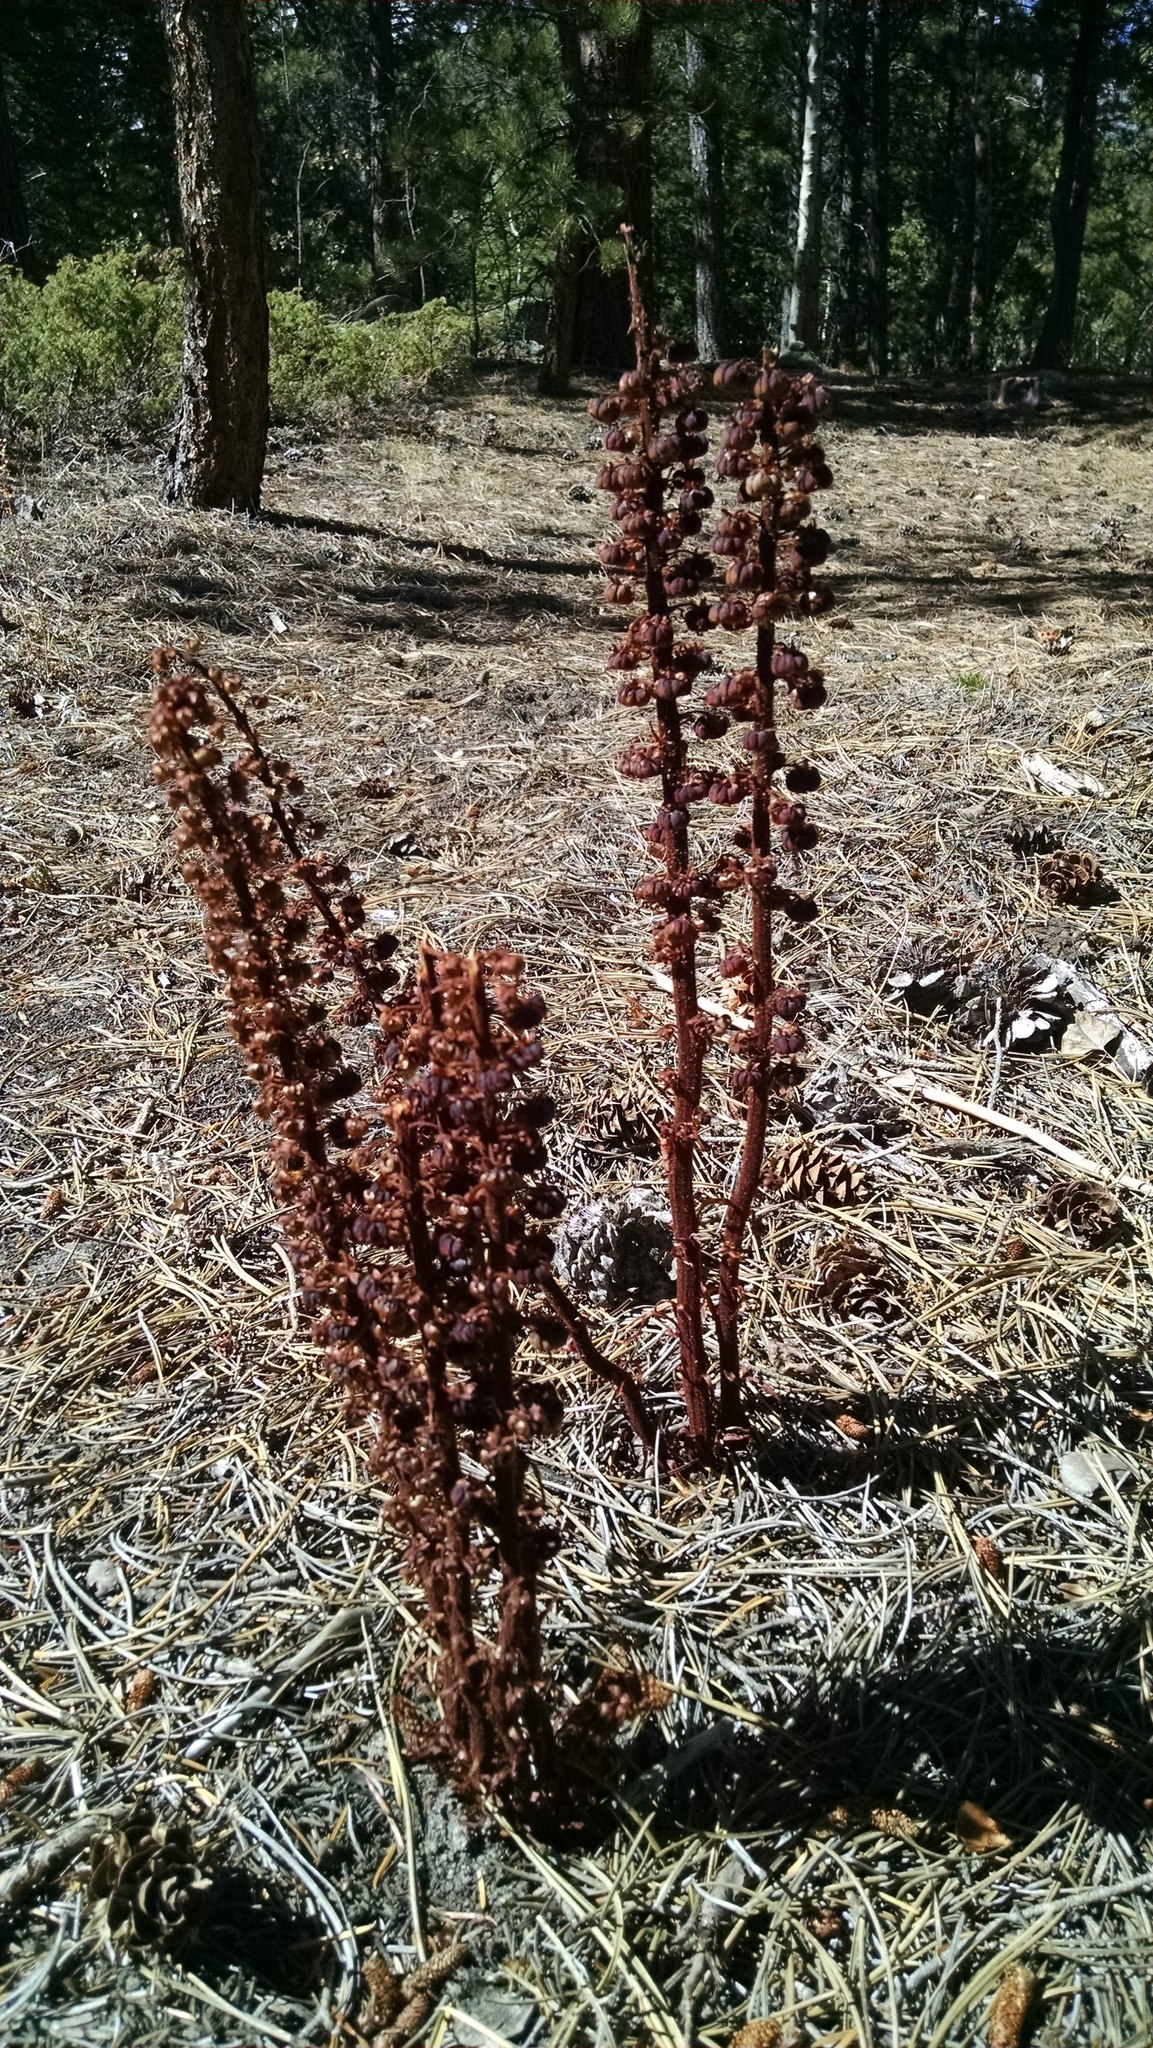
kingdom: Plantae
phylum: Tracheophyta
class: Magnoliopsida
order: Ericales
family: Ericaceae
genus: Pterospora
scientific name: Pterospora andromedea
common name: Giant bird's-nest
